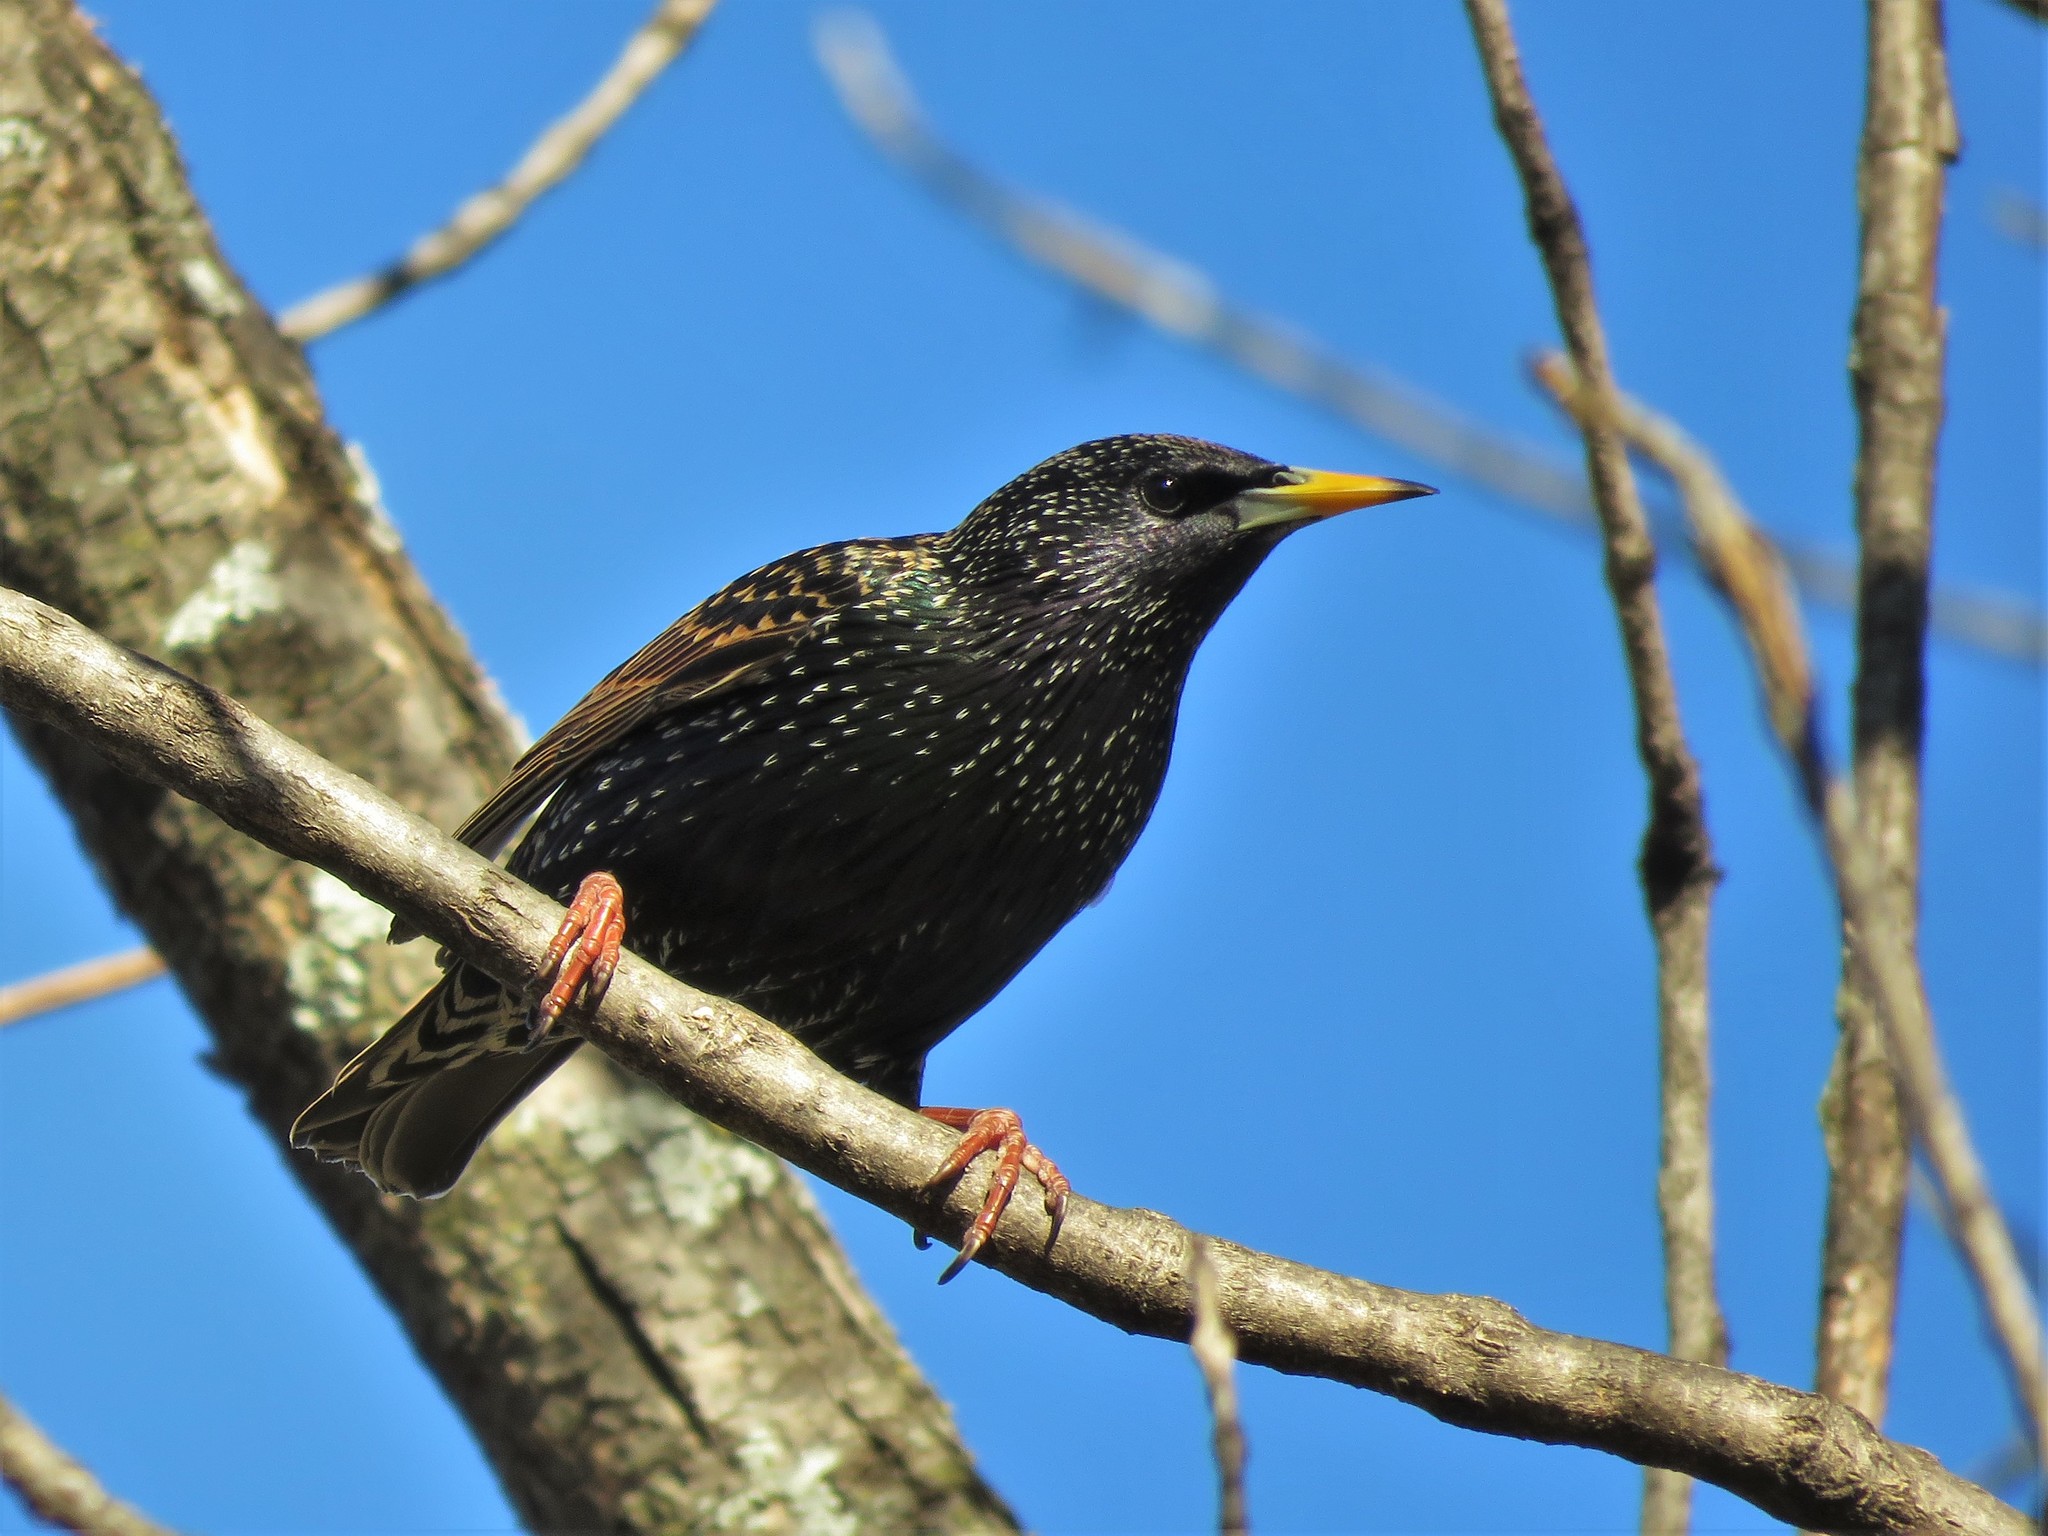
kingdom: Animalia
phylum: Chordata
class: Aves
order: Passeriformes
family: Sturnidae
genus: Sturnus
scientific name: Sturnus vulgaris
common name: Common starling
